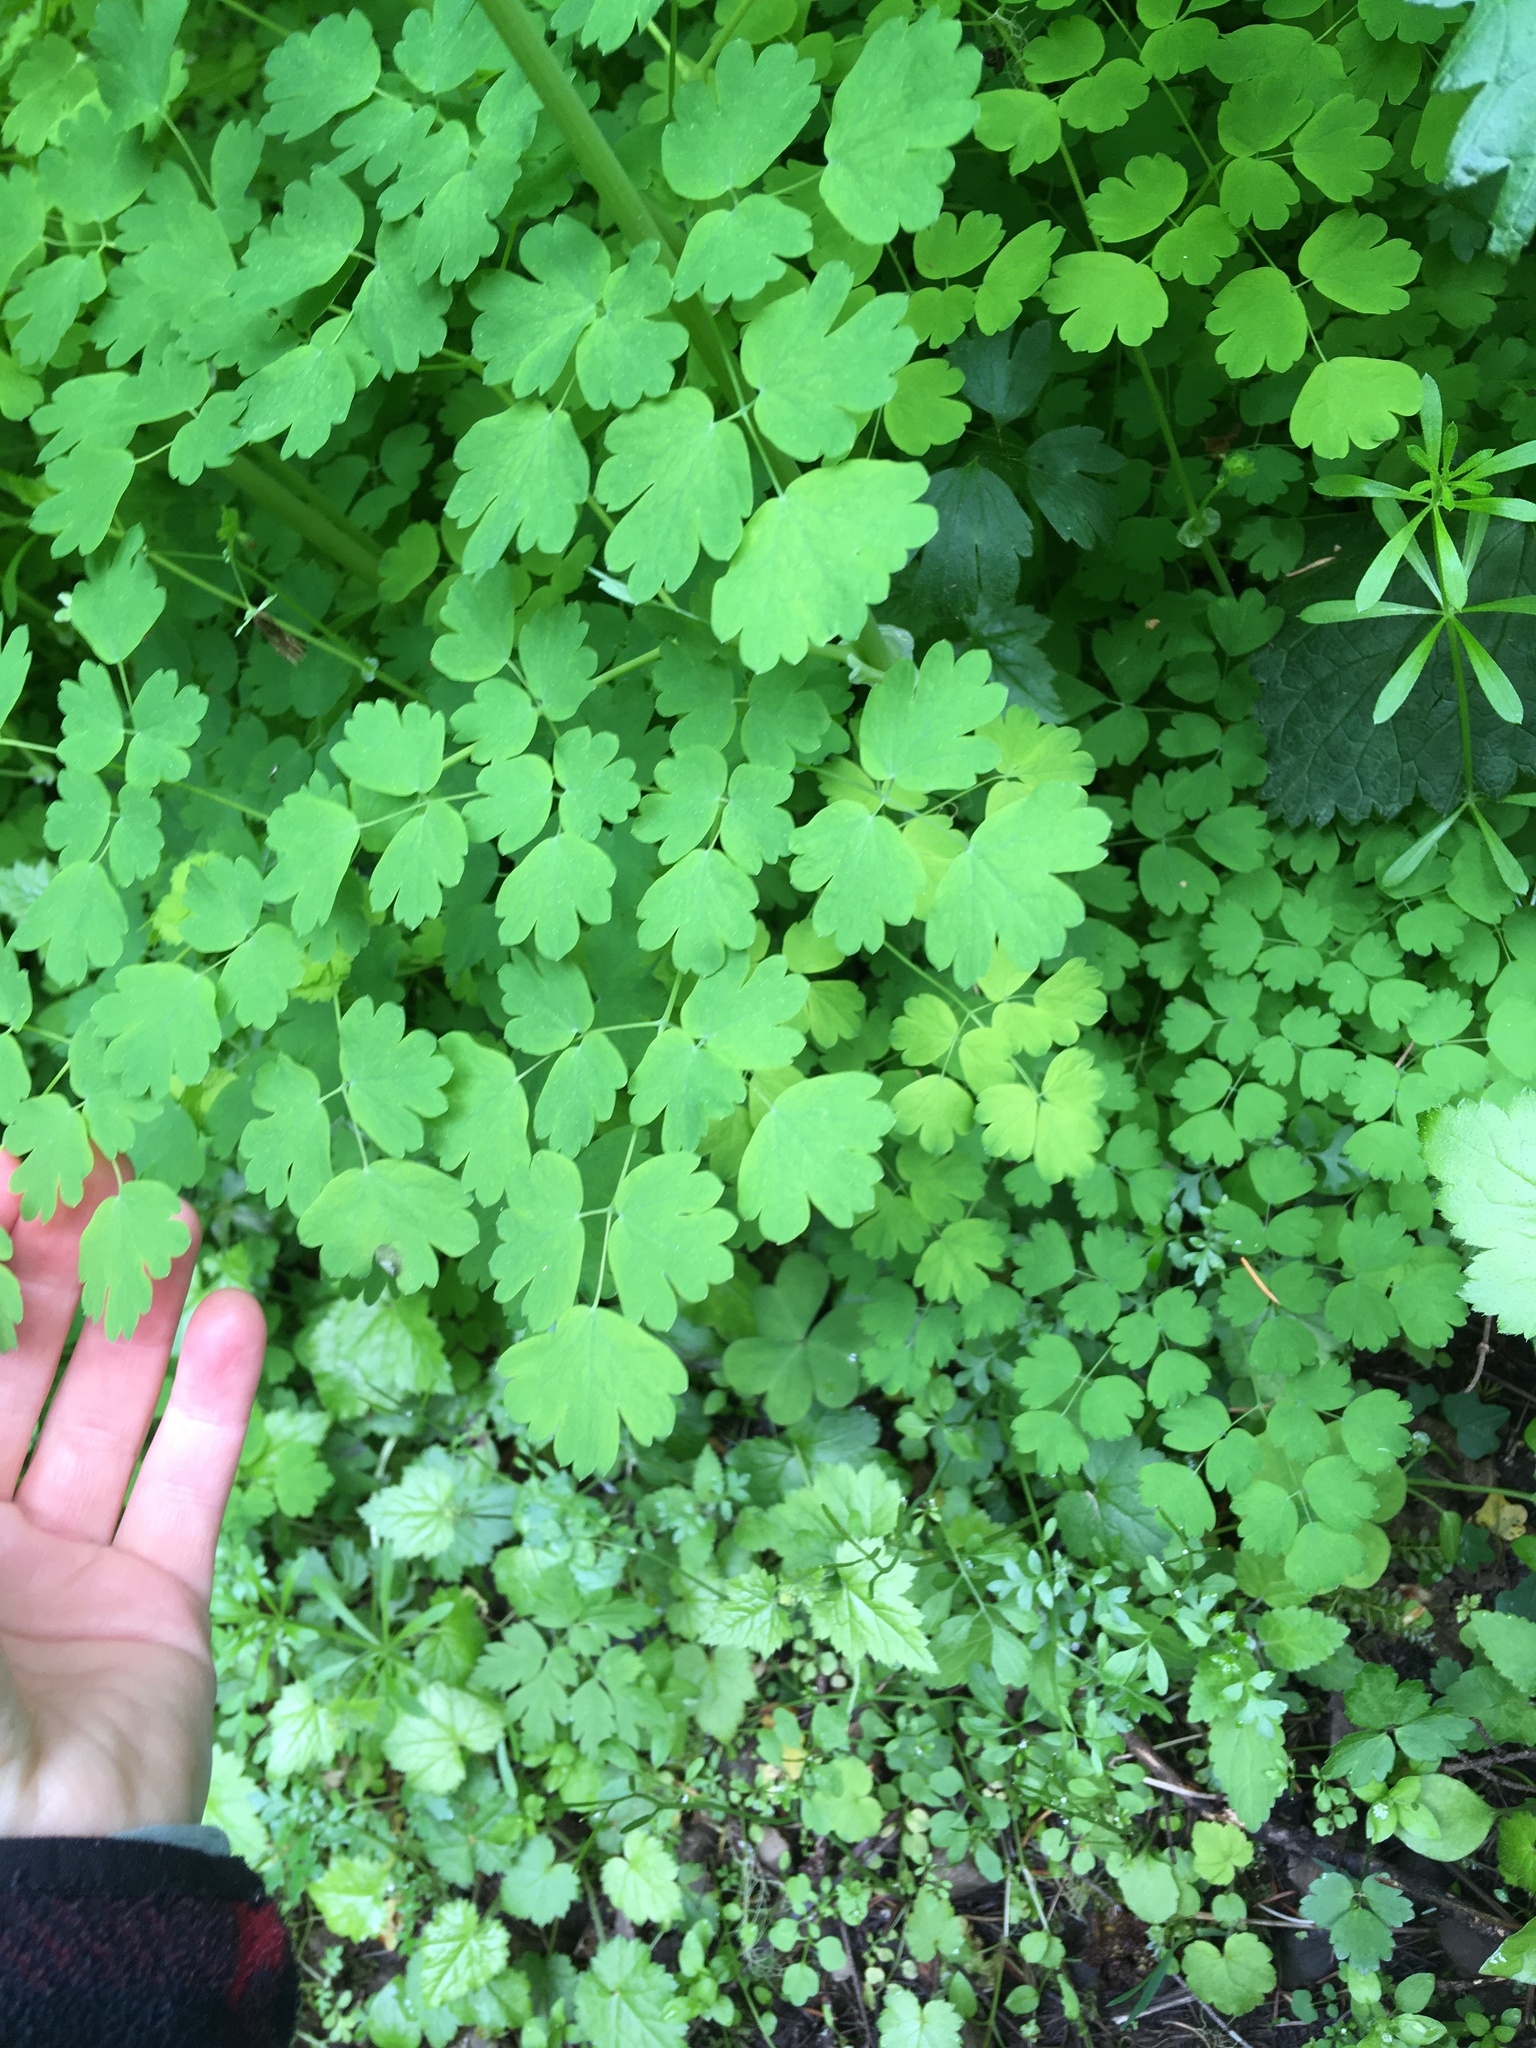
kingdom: Plantae
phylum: Tracheophyta
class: Magnoliopsida
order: Ranunculales
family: Ranunculaceae
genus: Thalictrum
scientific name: Thalictrum occidentale
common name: Western meadow-rue
